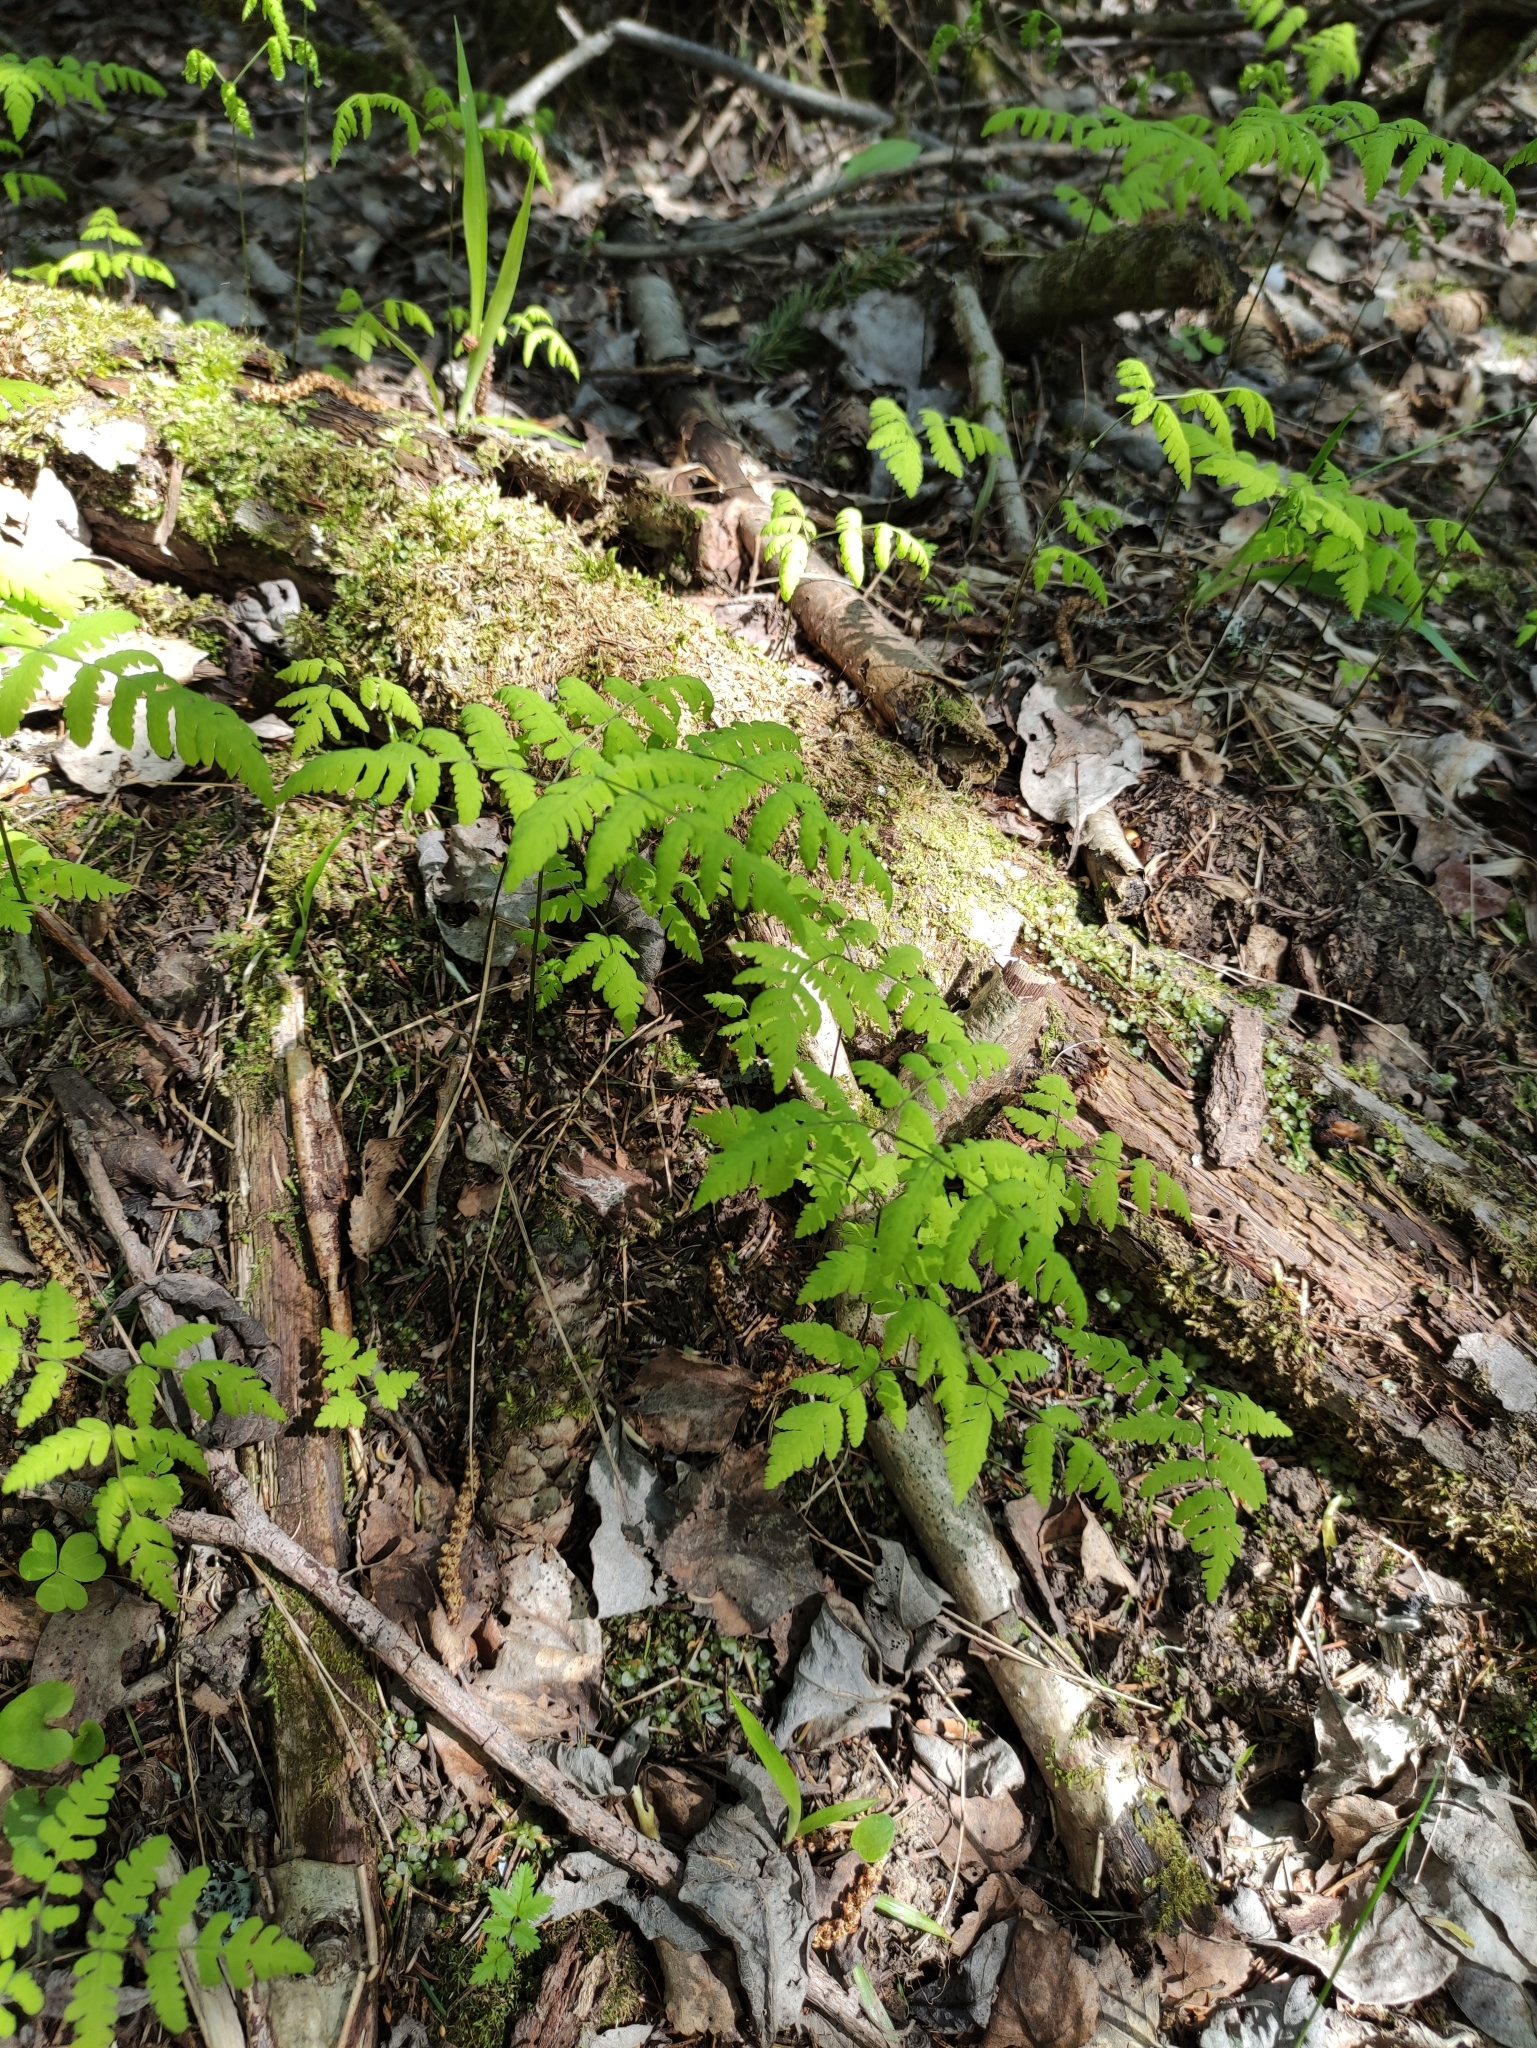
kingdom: Plantae
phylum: Tracheophyta
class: Polypodiopsida
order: Polypodiales
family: Cystopteridaceae
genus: Gymnocarpium
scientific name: Gymnocarpium dryopteris
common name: Oak fern
